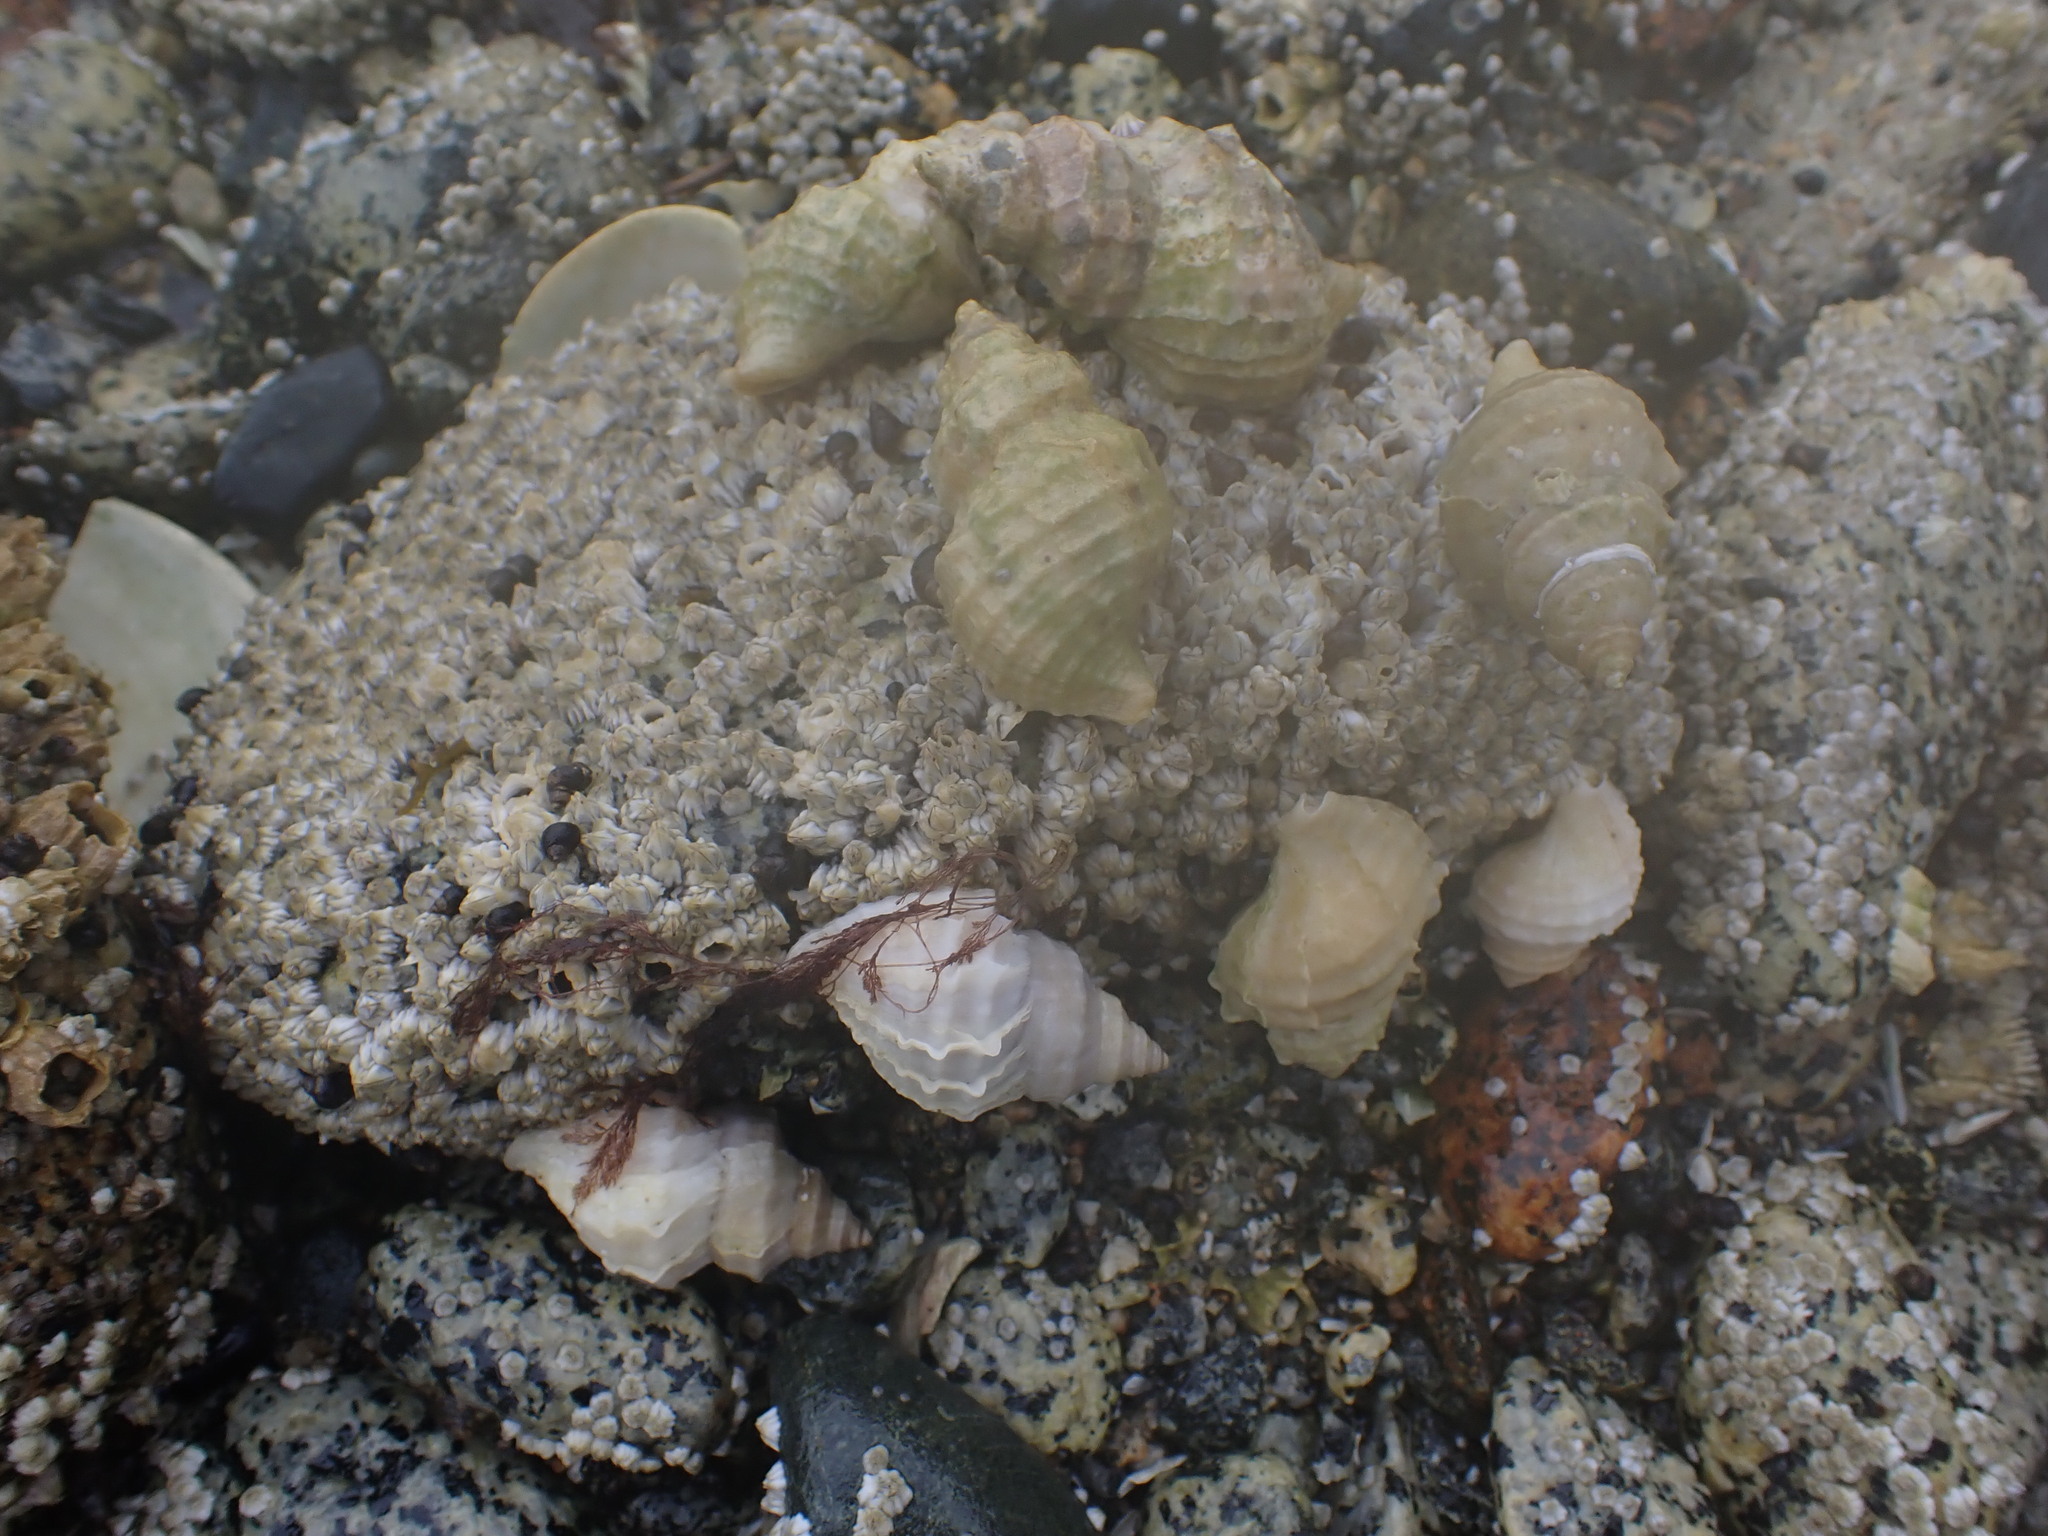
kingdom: Animalia
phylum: Mollusca
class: Gastropoda
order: Neogastropoda
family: Muricidae
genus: Nucella
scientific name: Nucella lamellosa
